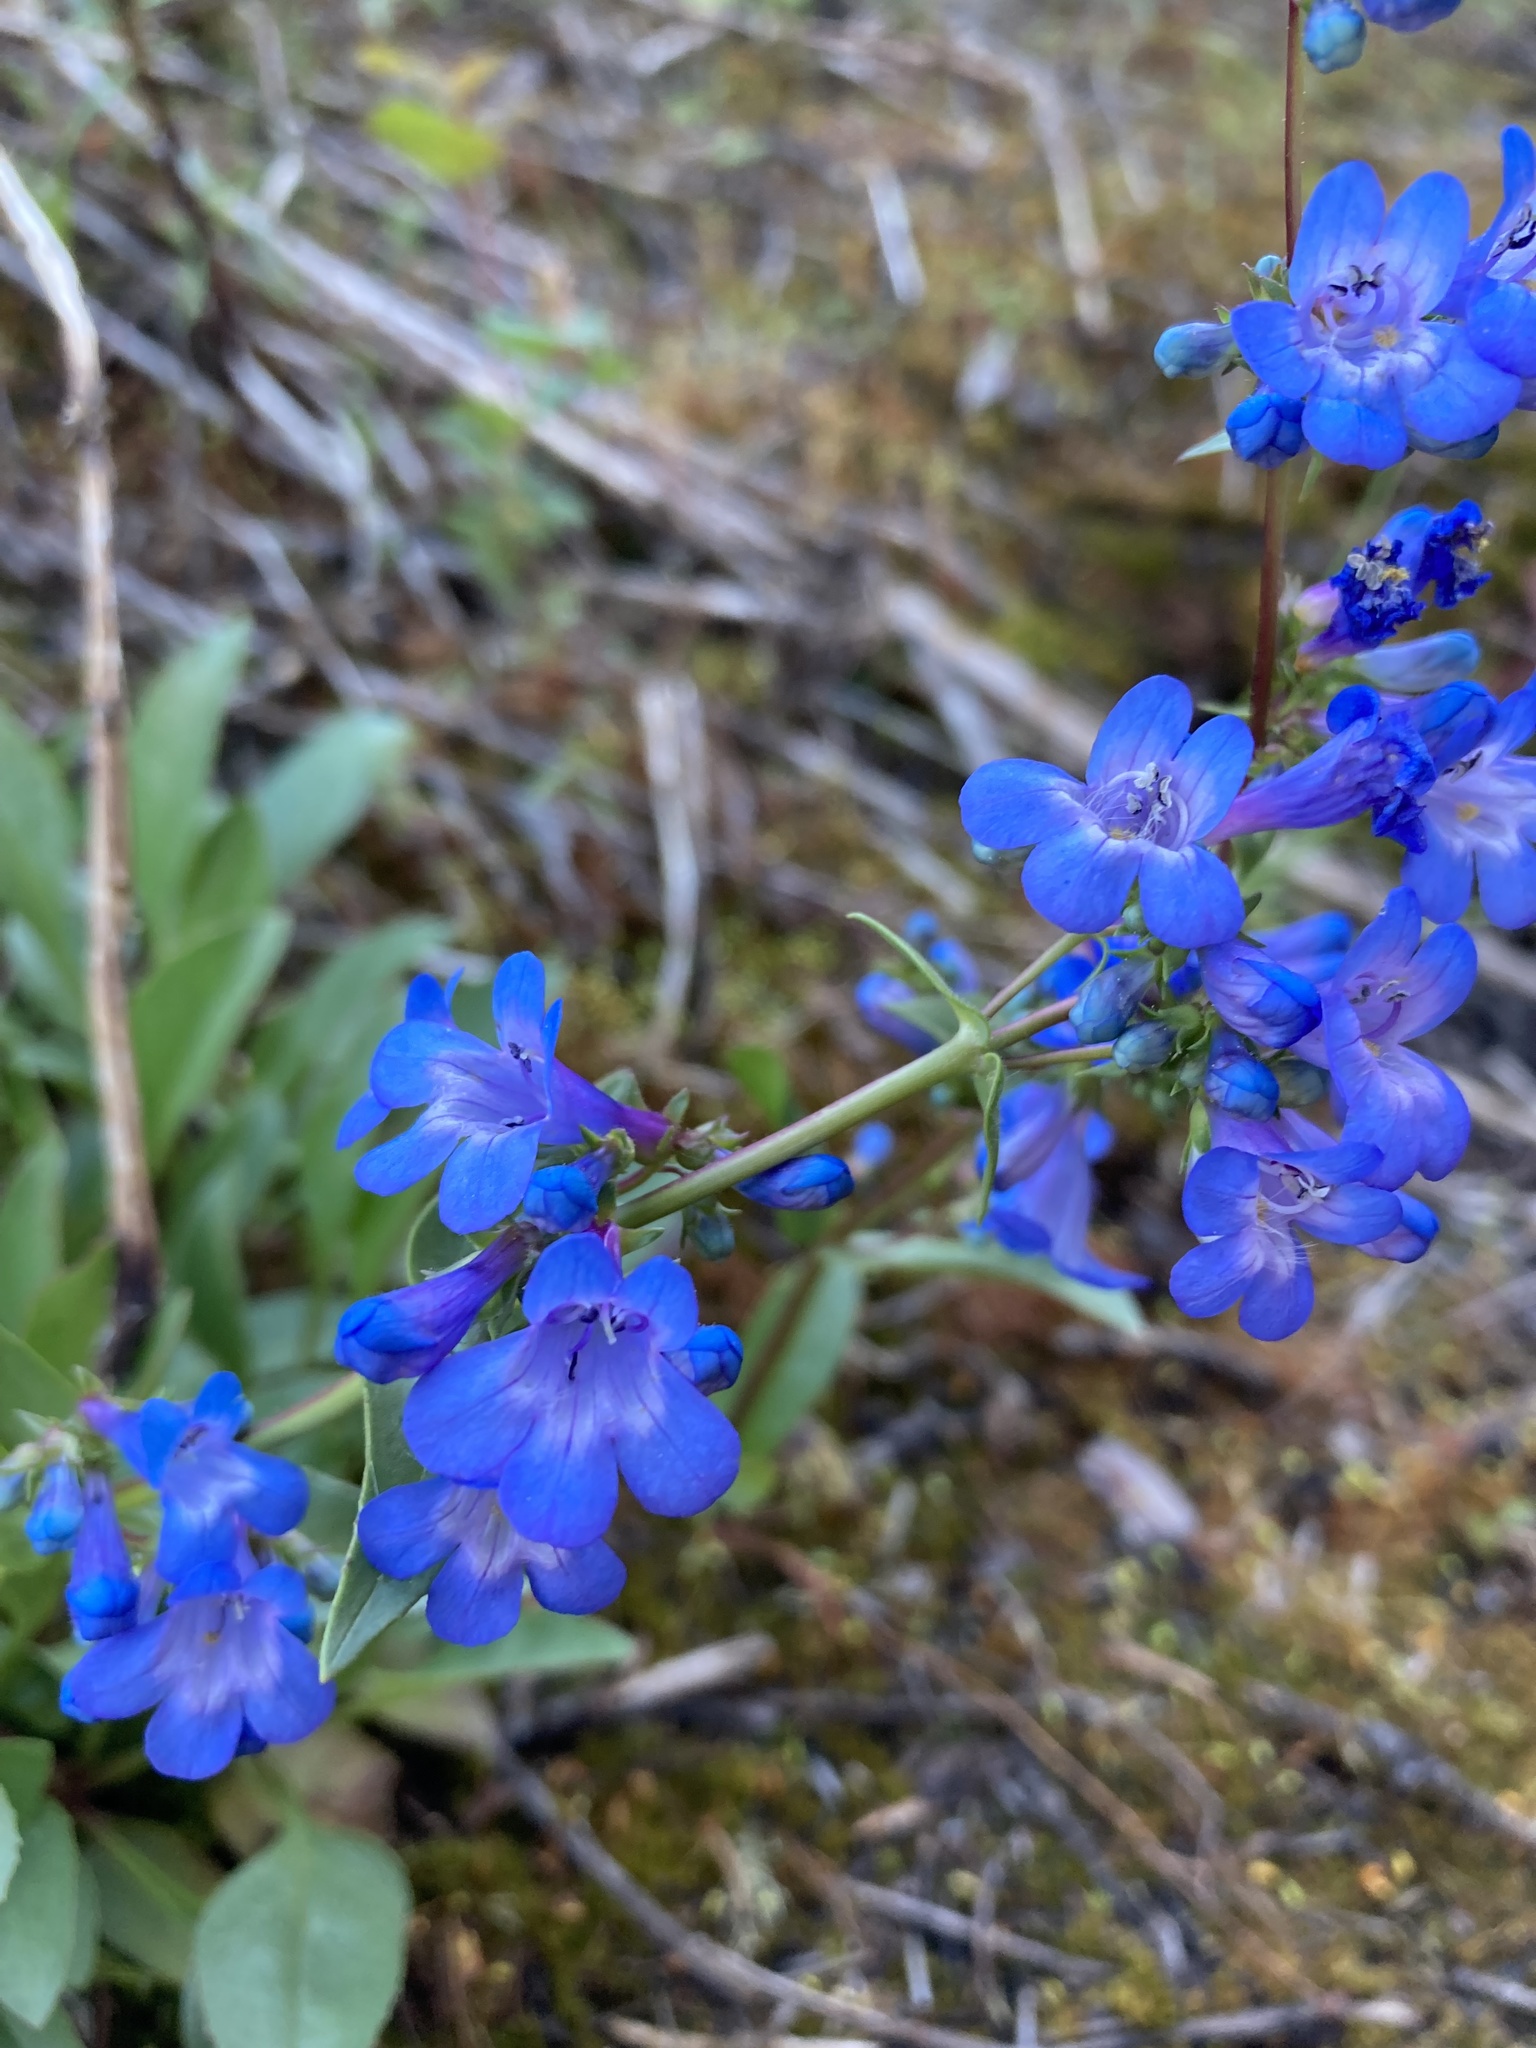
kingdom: Plantae
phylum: Tracheophyta
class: Magnoliopsida
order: Lamiales
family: Plantaginaceae
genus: Penstemon
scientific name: Penstemon albertinus
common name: Alberta beardtongue
